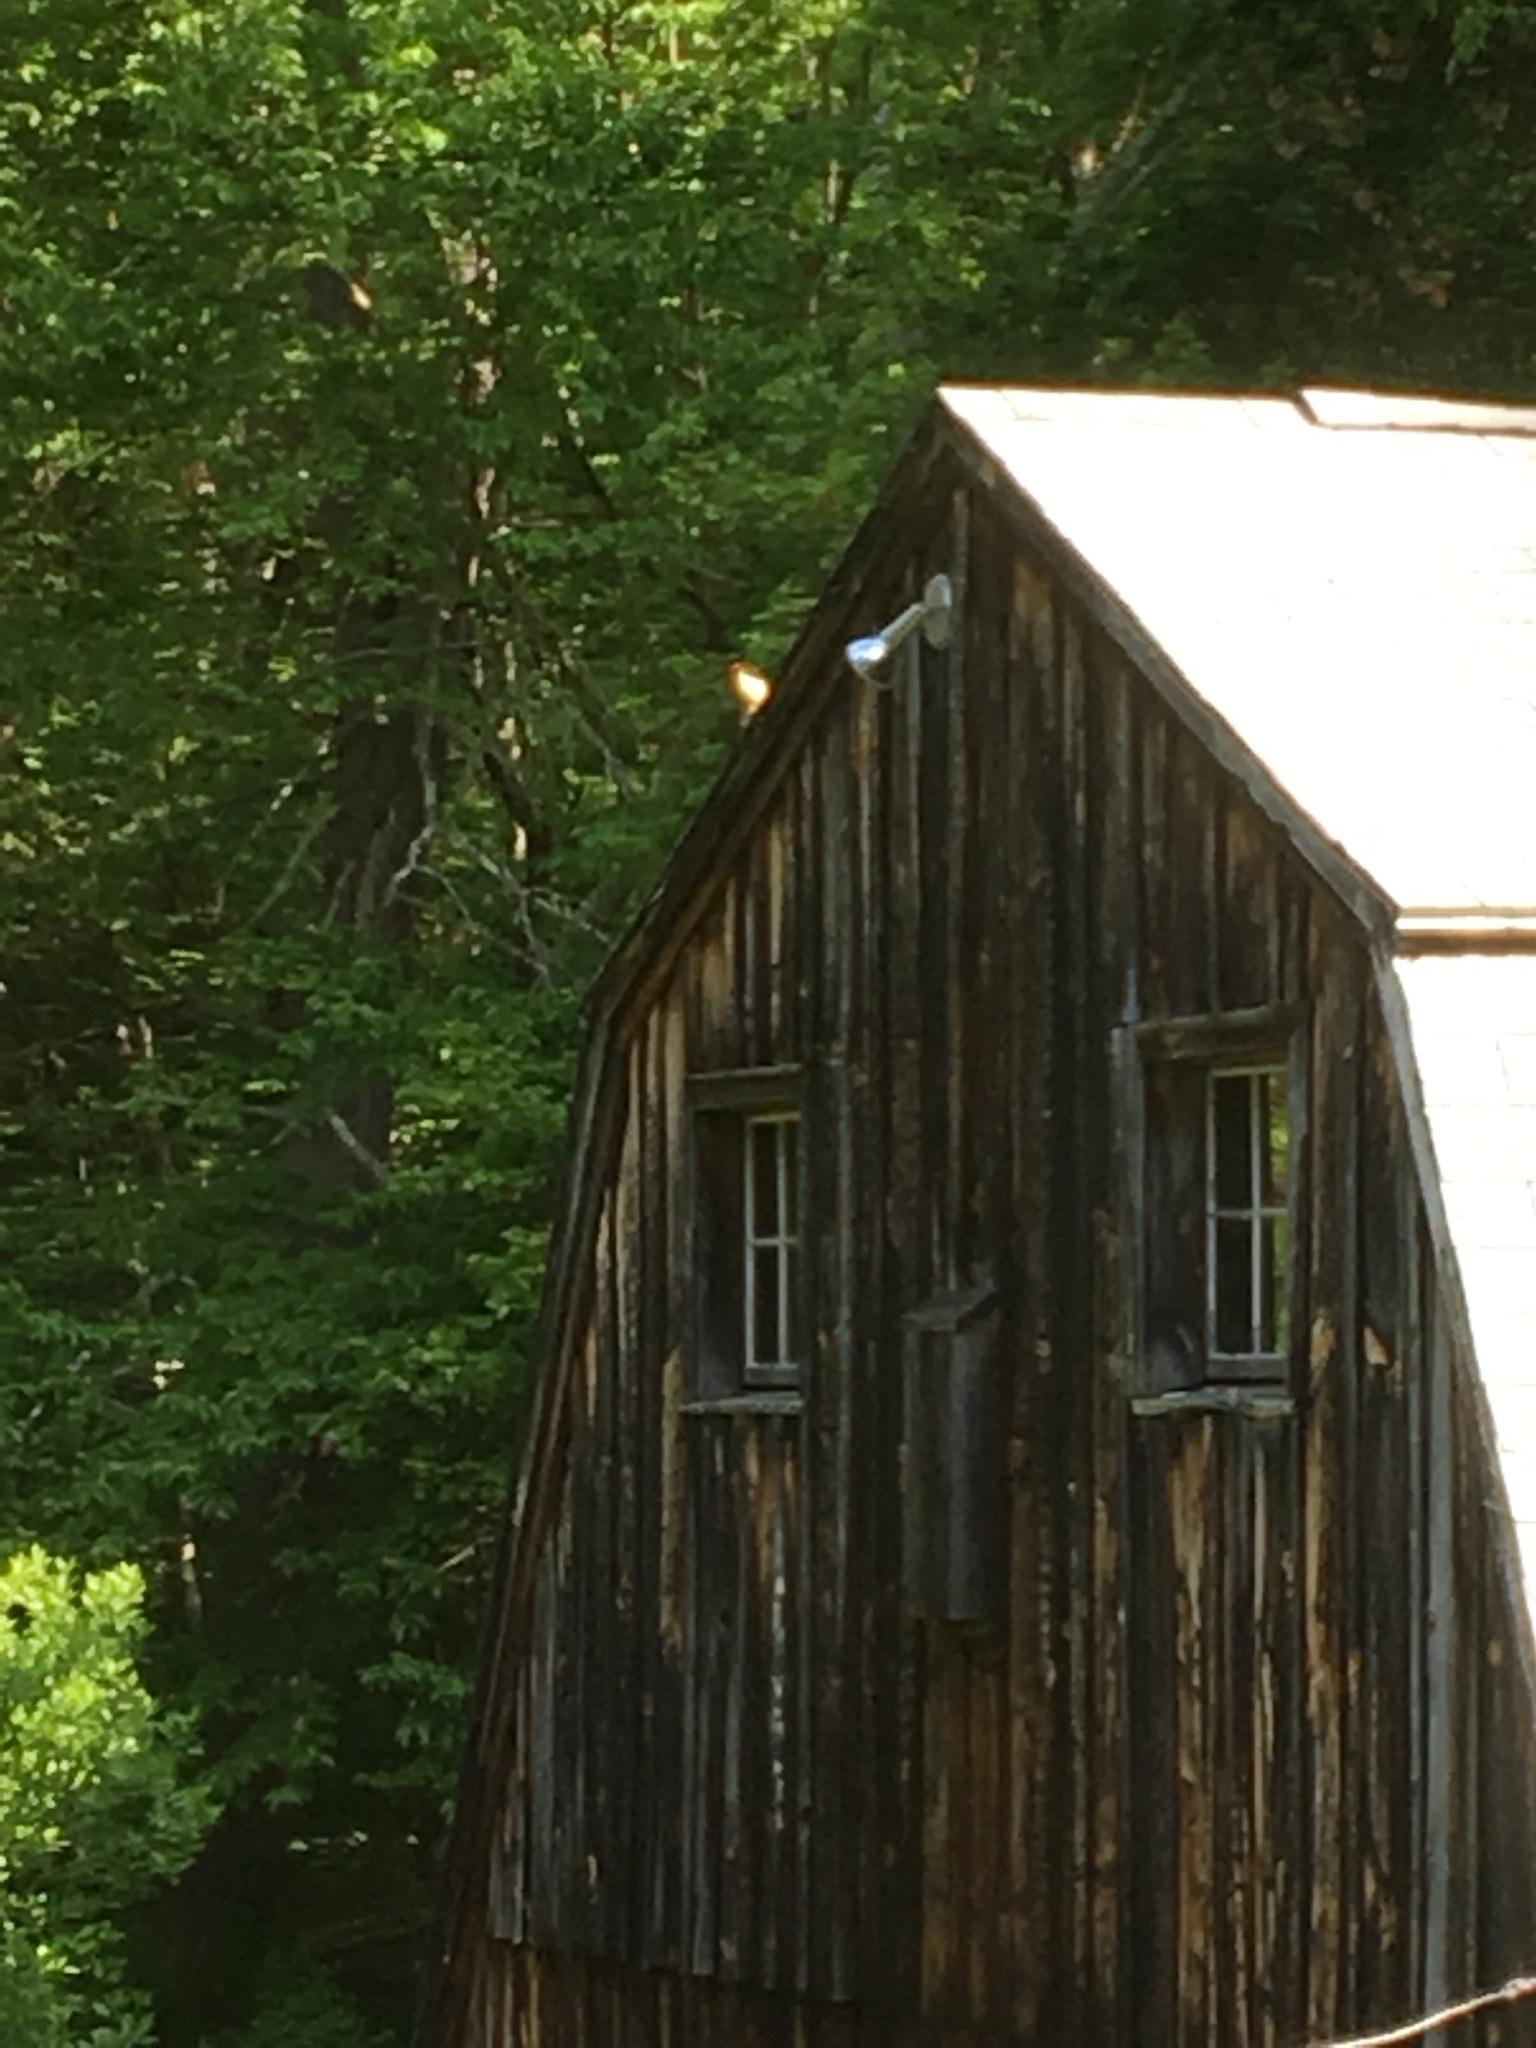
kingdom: Animalia
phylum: Chordata
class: Aves
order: Piciformes
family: Picidae
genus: Melanerpes
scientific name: Melanerpes carolinus
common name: Red-bellied woodpecker
